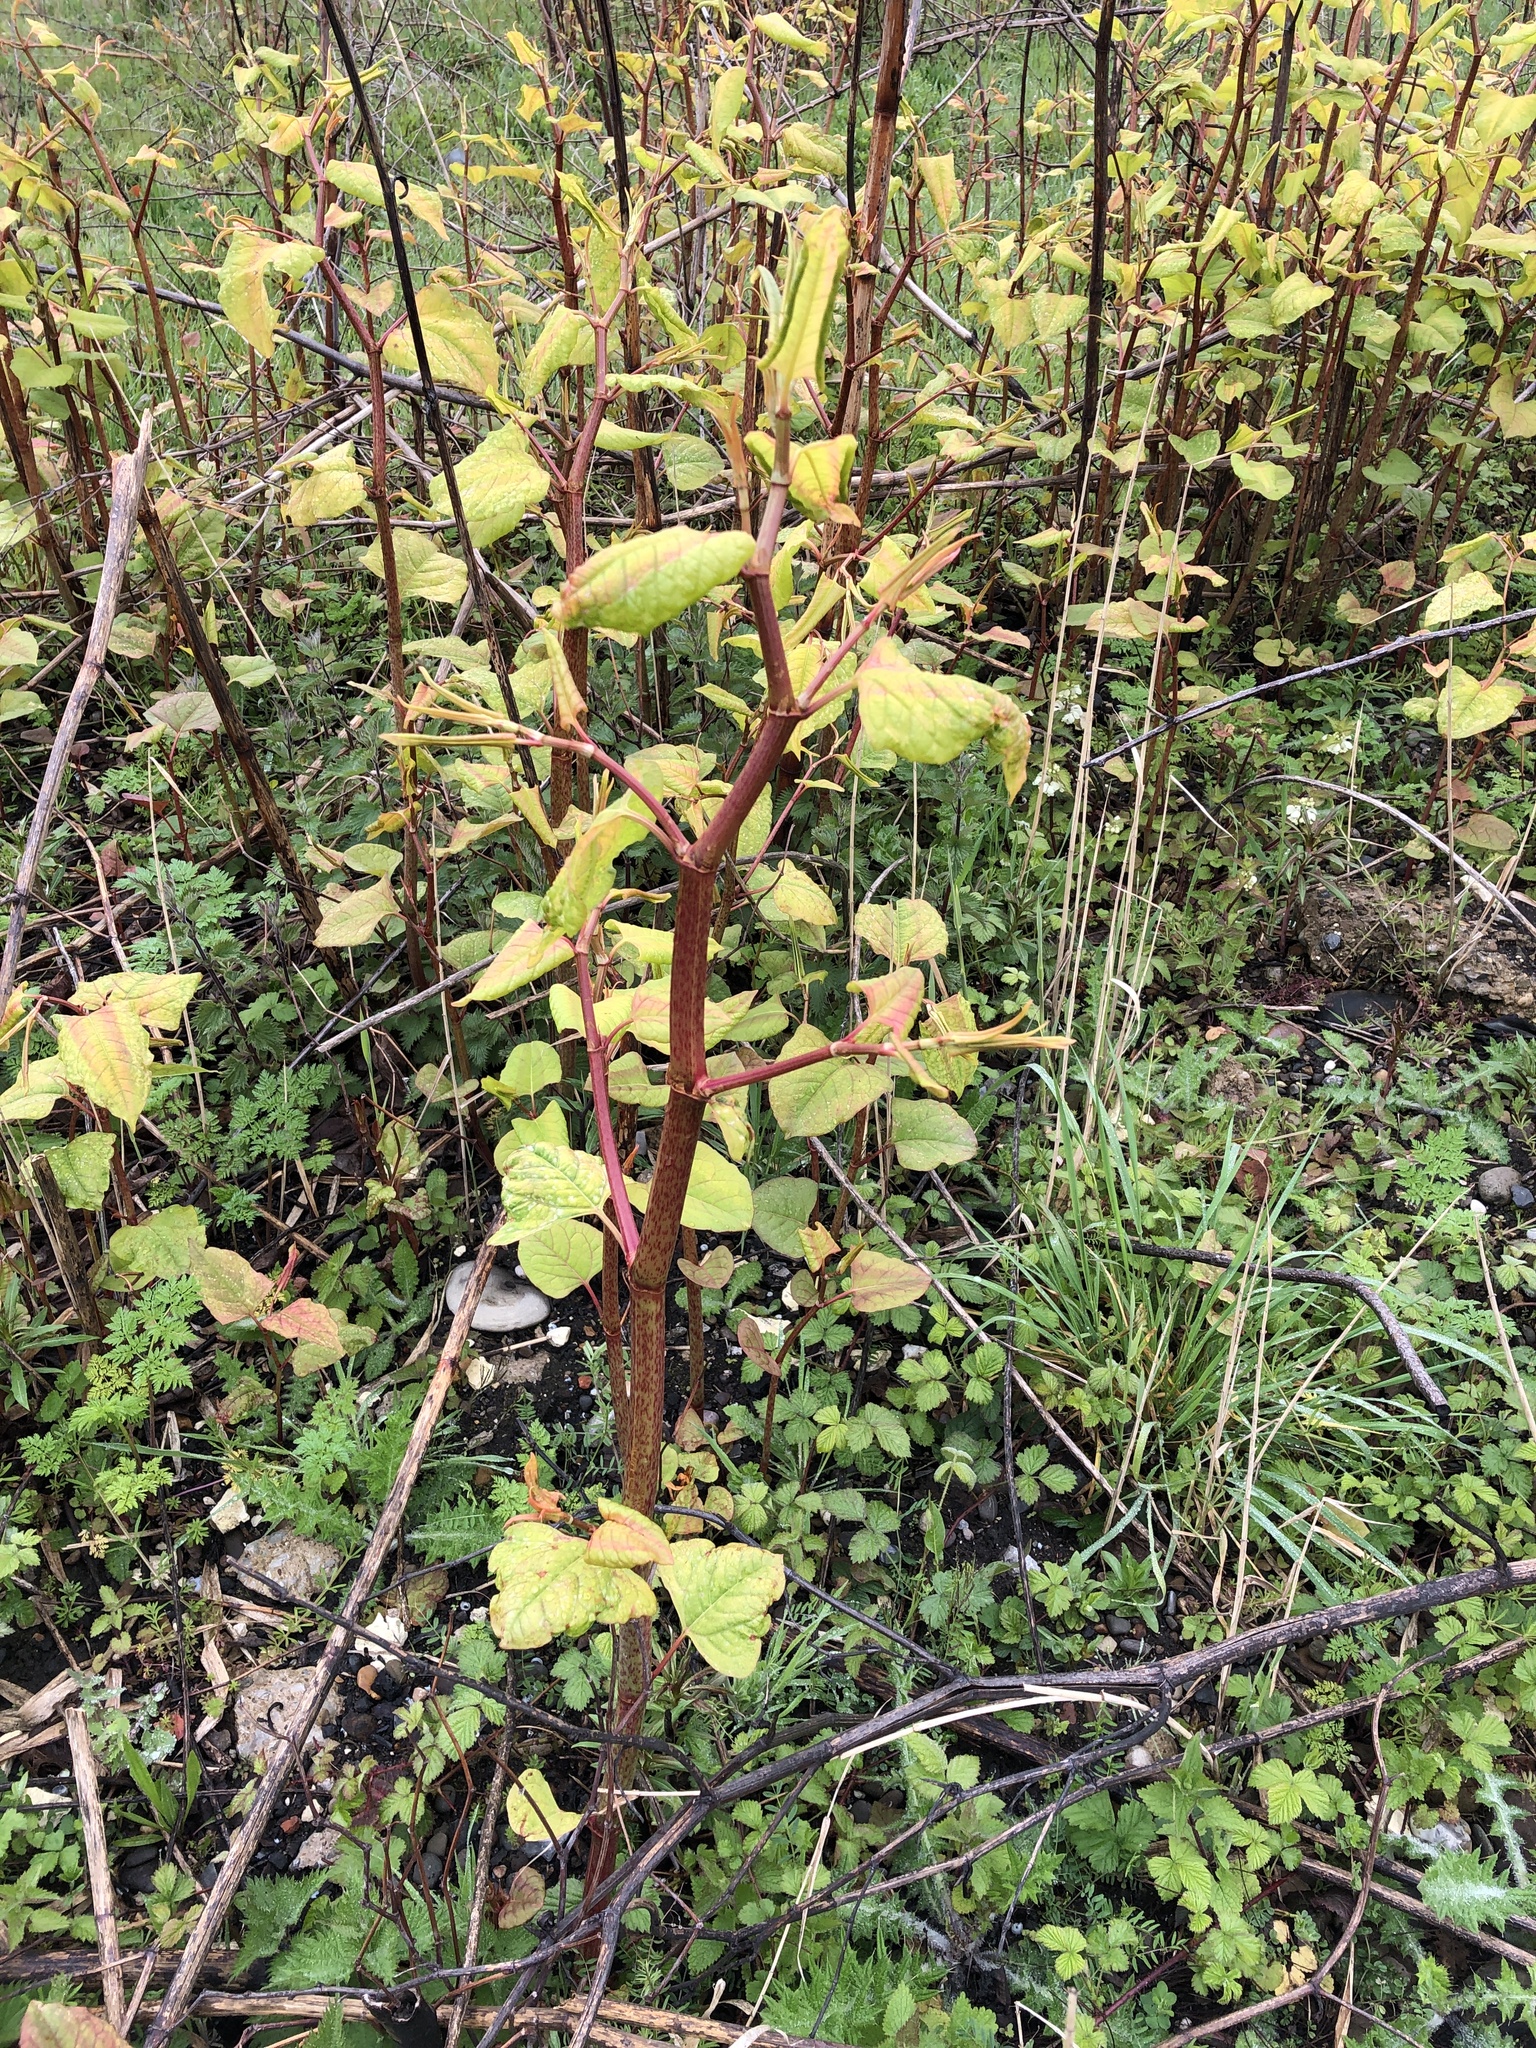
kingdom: Plantae
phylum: Tracheophyta
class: Magnoliopsida
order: Caryophyllales
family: Polygonaceae
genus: Reynoutria
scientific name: Reynoutria japonica
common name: Japanese knotweed
